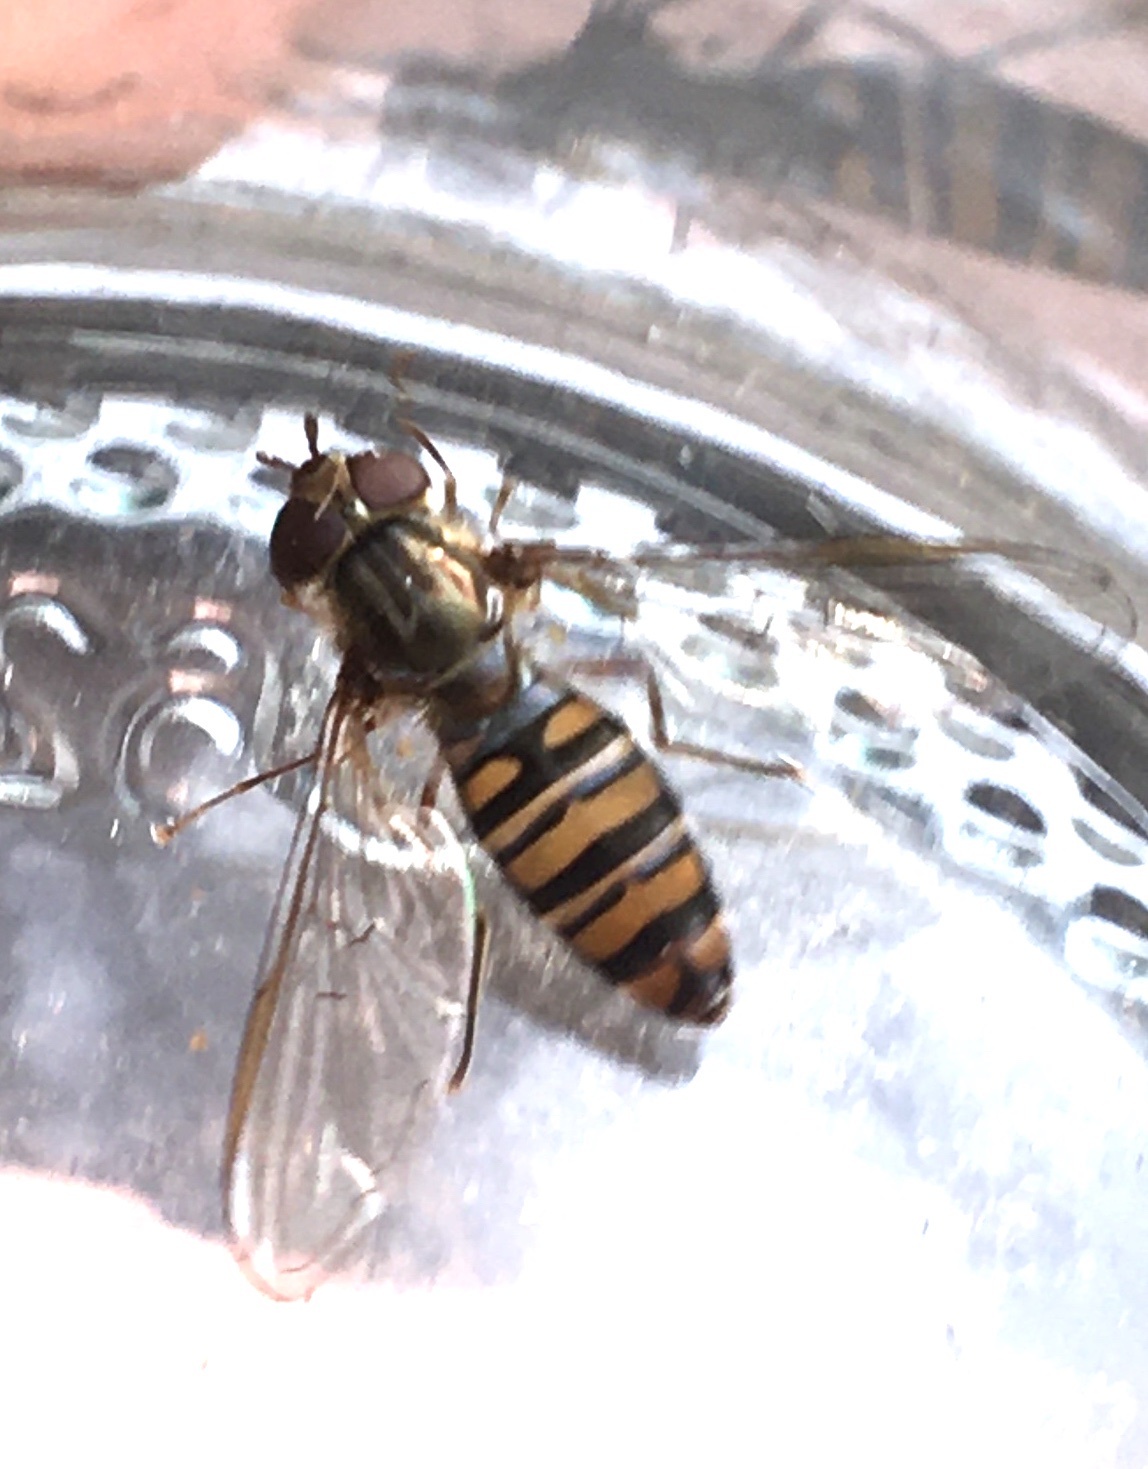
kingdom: Animalia
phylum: Arthropoda
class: Insecta
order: Diptera
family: Syrphidae
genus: Episyrphus
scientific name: Episyrphus balteatus
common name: Marmalade hoverfly
